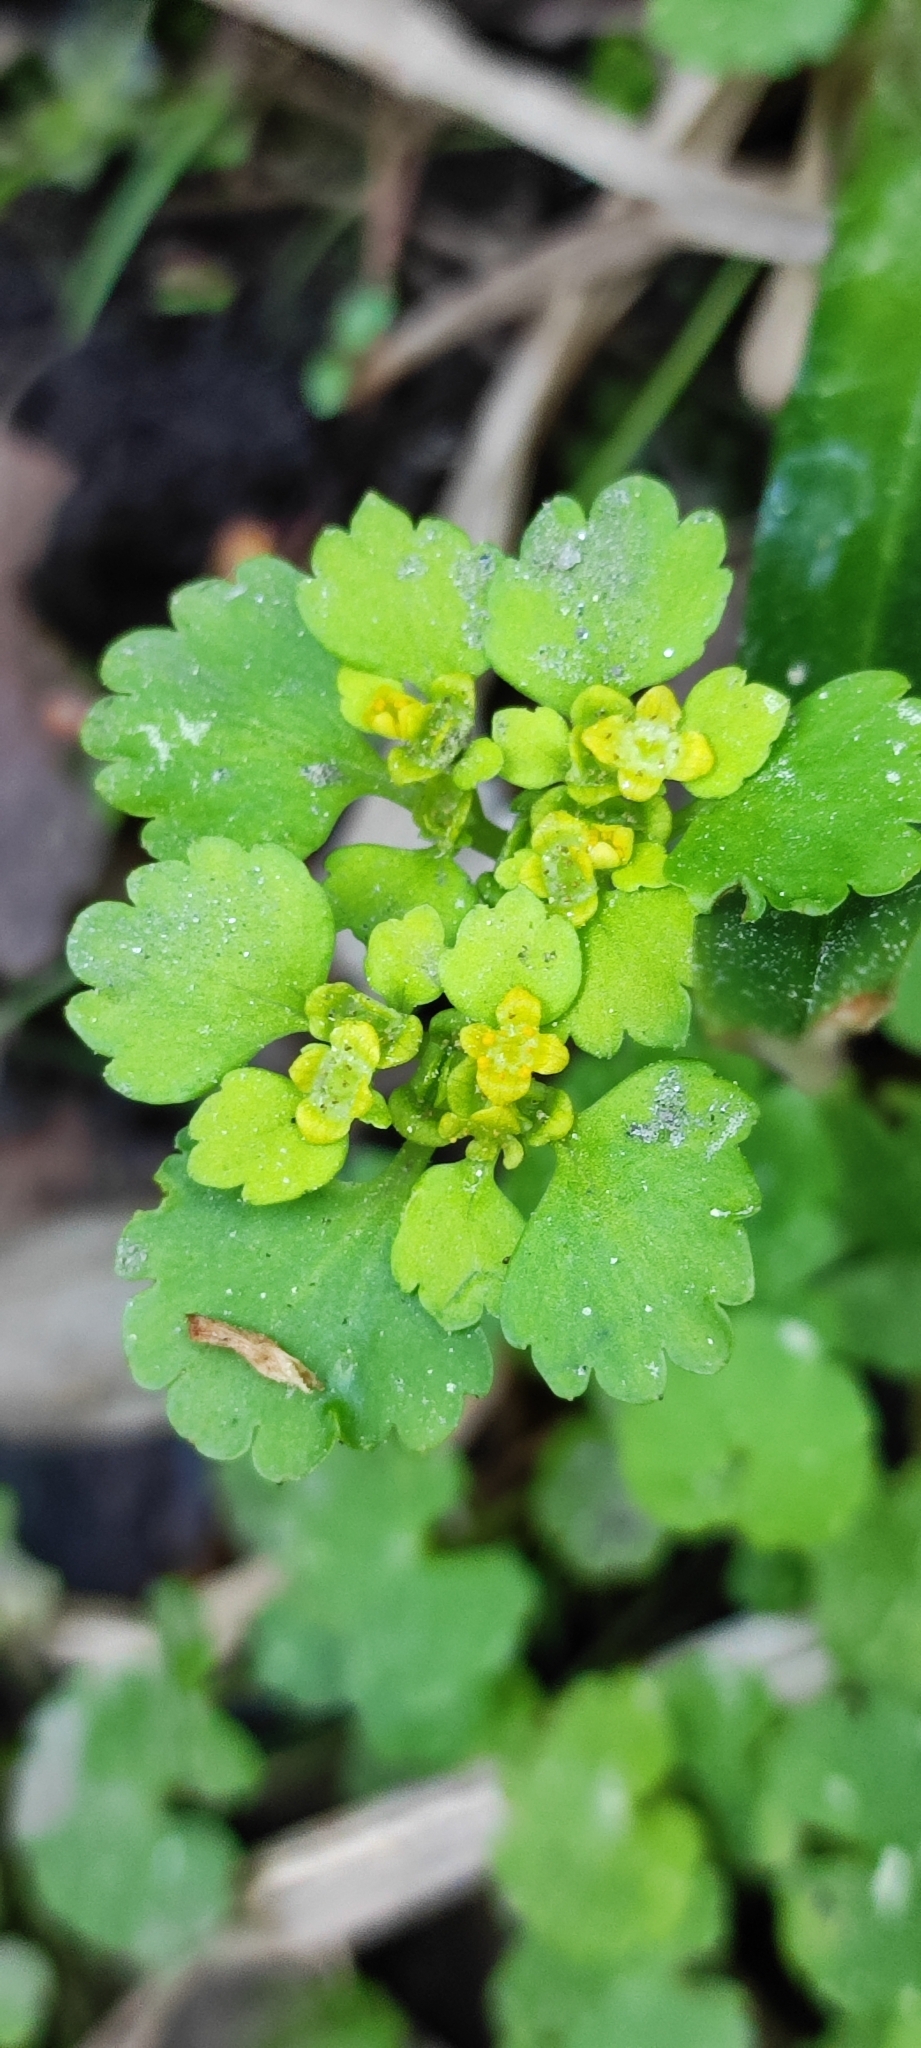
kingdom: Plantae
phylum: Tracheophyta
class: Magnoliopsida
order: Saxifragales
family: Saxifragaceae
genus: Chrysosplenium
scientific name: Chrysosplenium alternifolium
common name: Alternate-leaved golden-saxifrage
